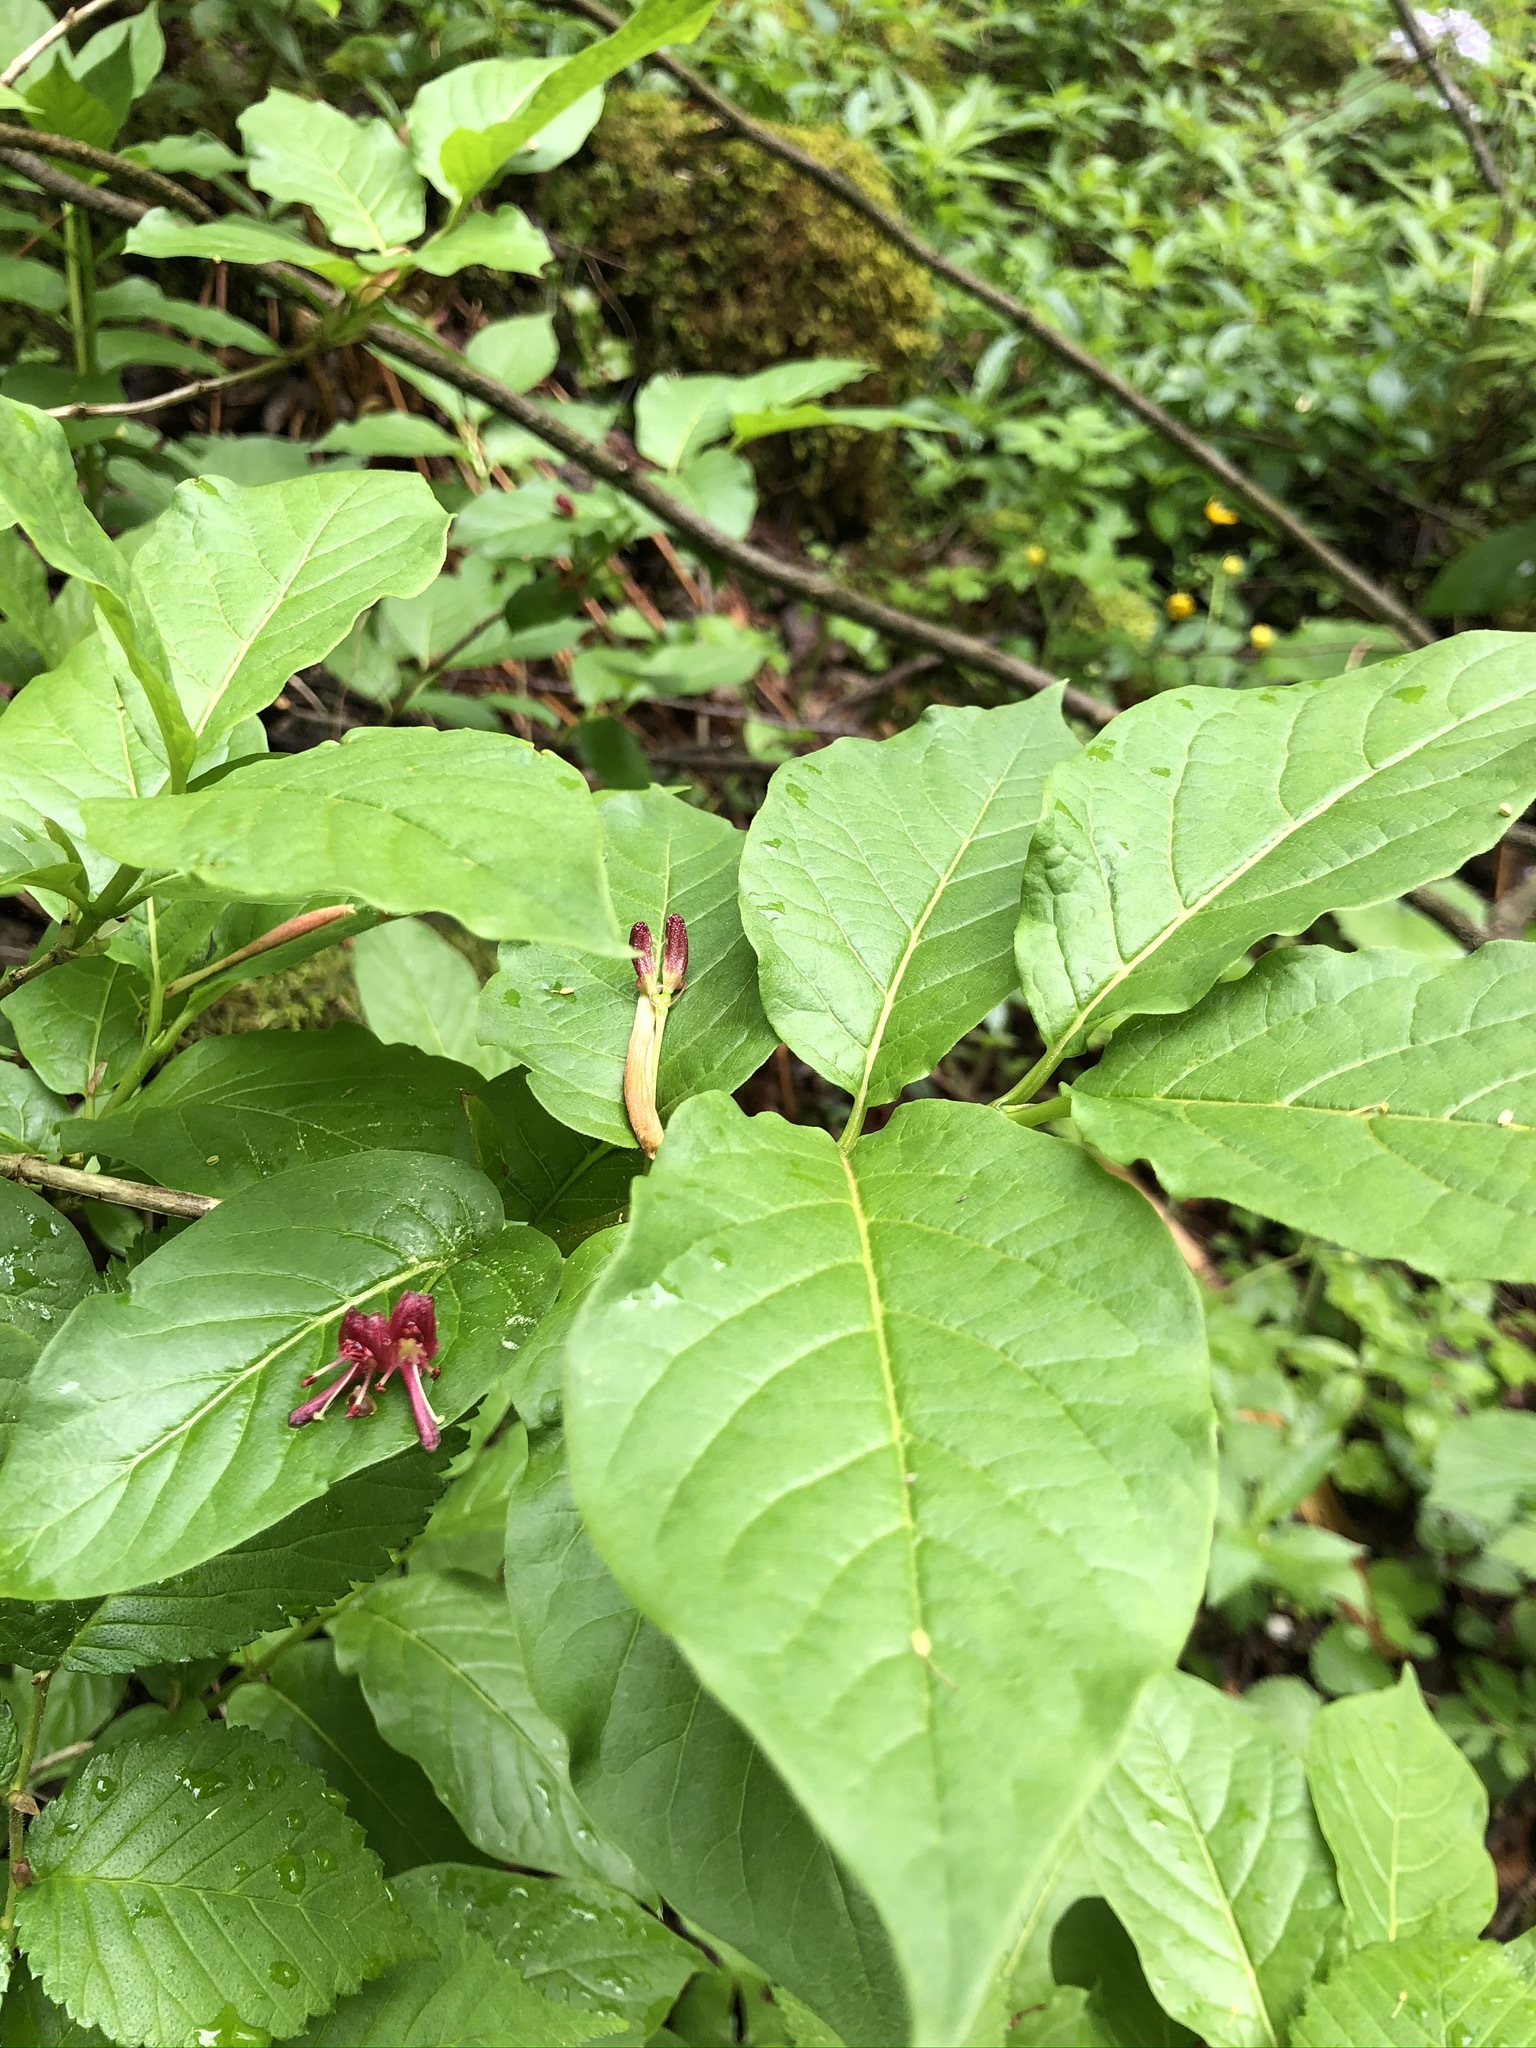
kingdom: Plantae
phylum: Tracheophyta
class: Magnoliopsida
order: Dipsacales
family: Caprifoliaceae
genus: Lonicera
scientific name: Lonicera alpigena
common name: Alpine honeysuckle
